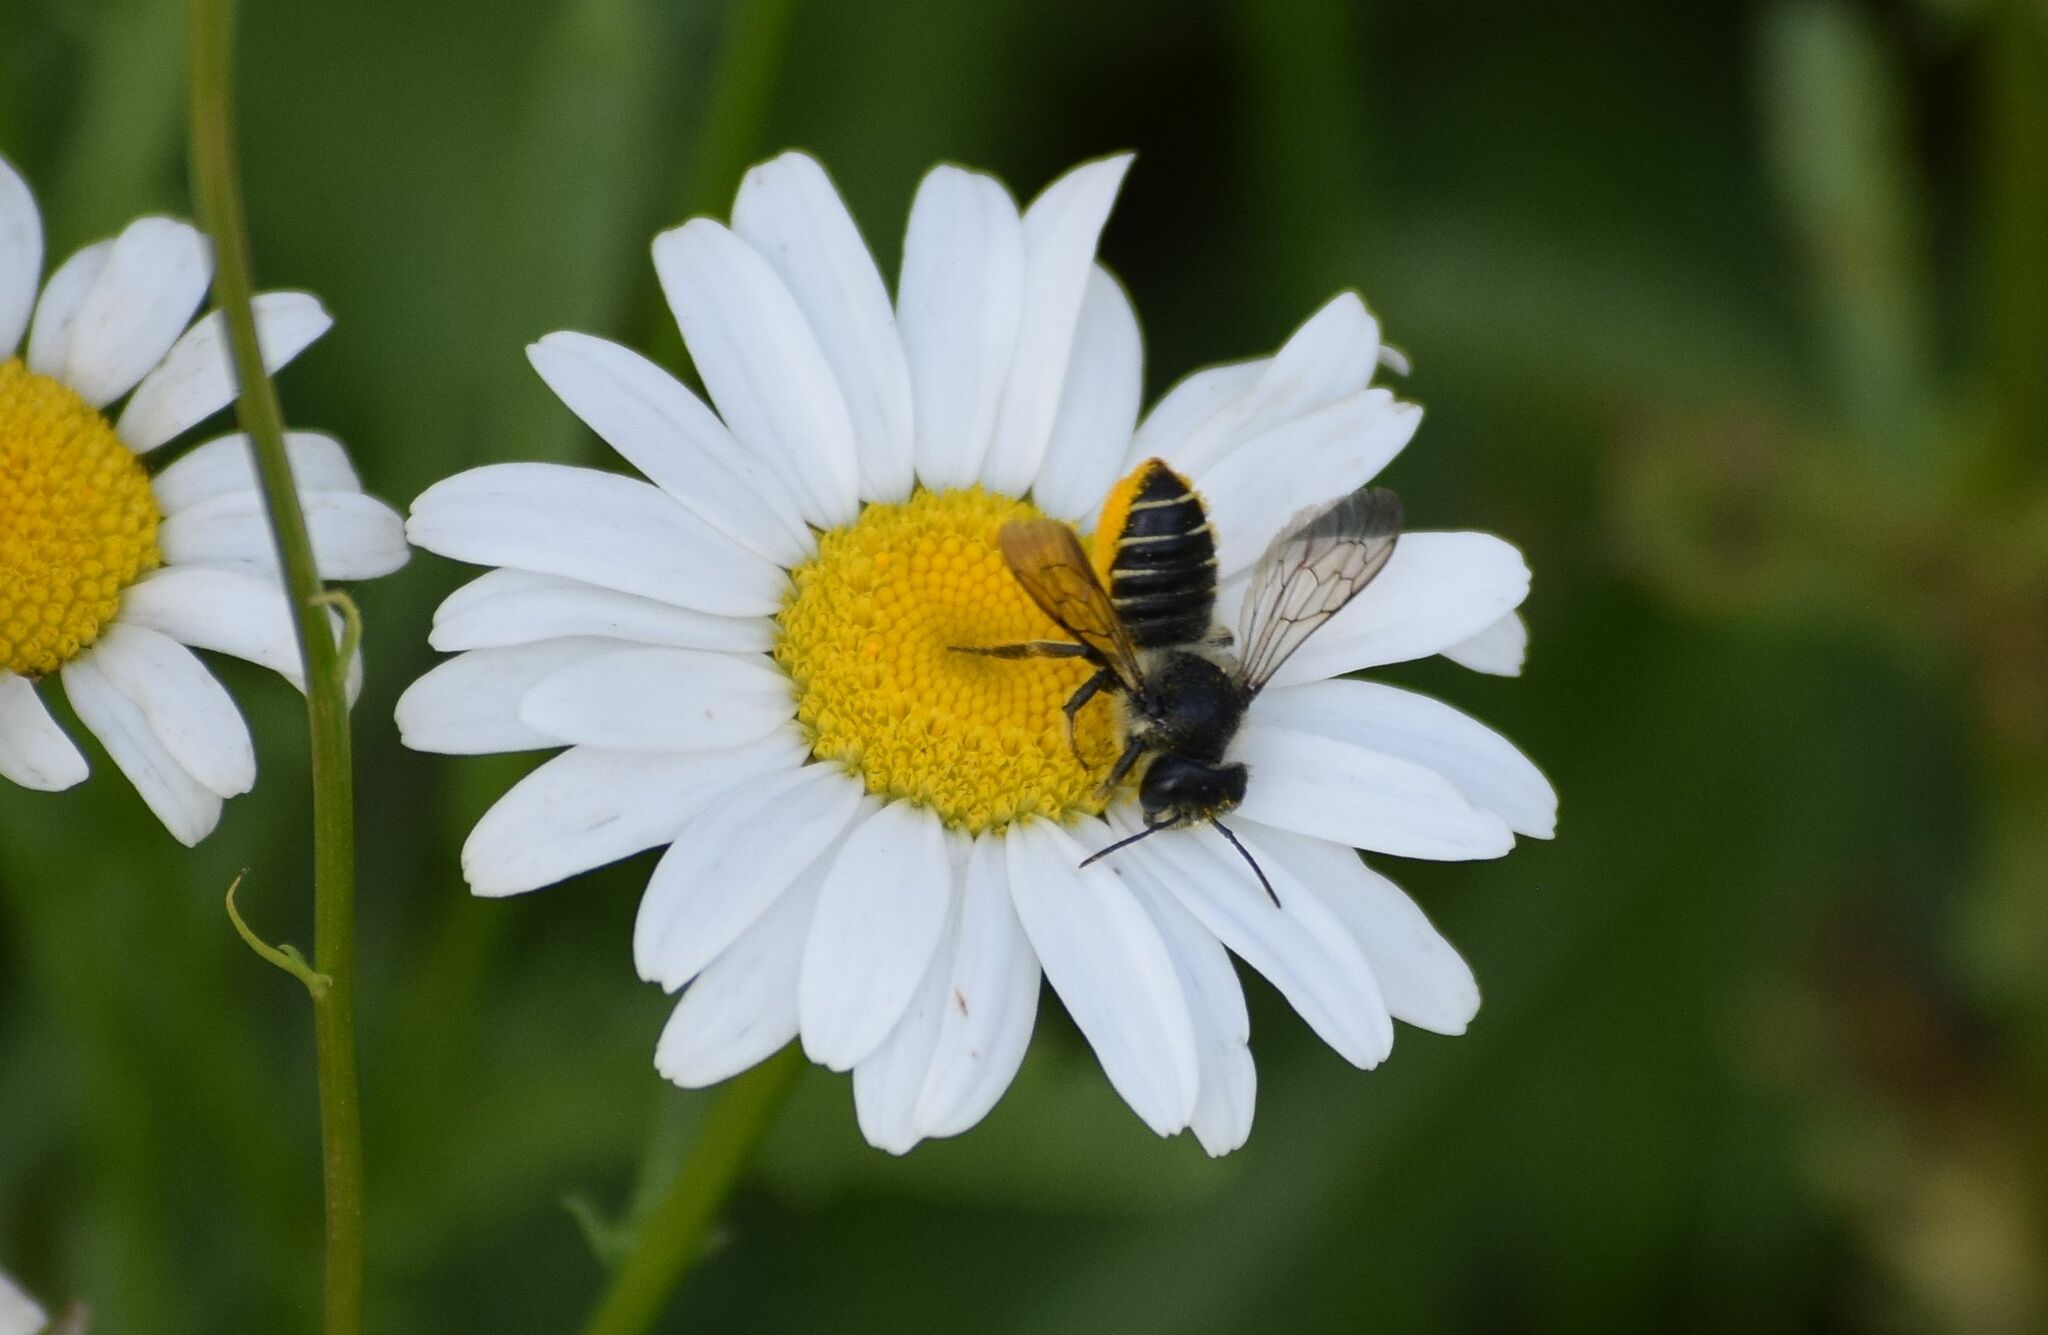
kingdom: Animalia
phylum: Arthropoda
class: Insecta
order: Hymenoptera
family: Megachilidae
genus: Megachile
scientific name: Megachile
